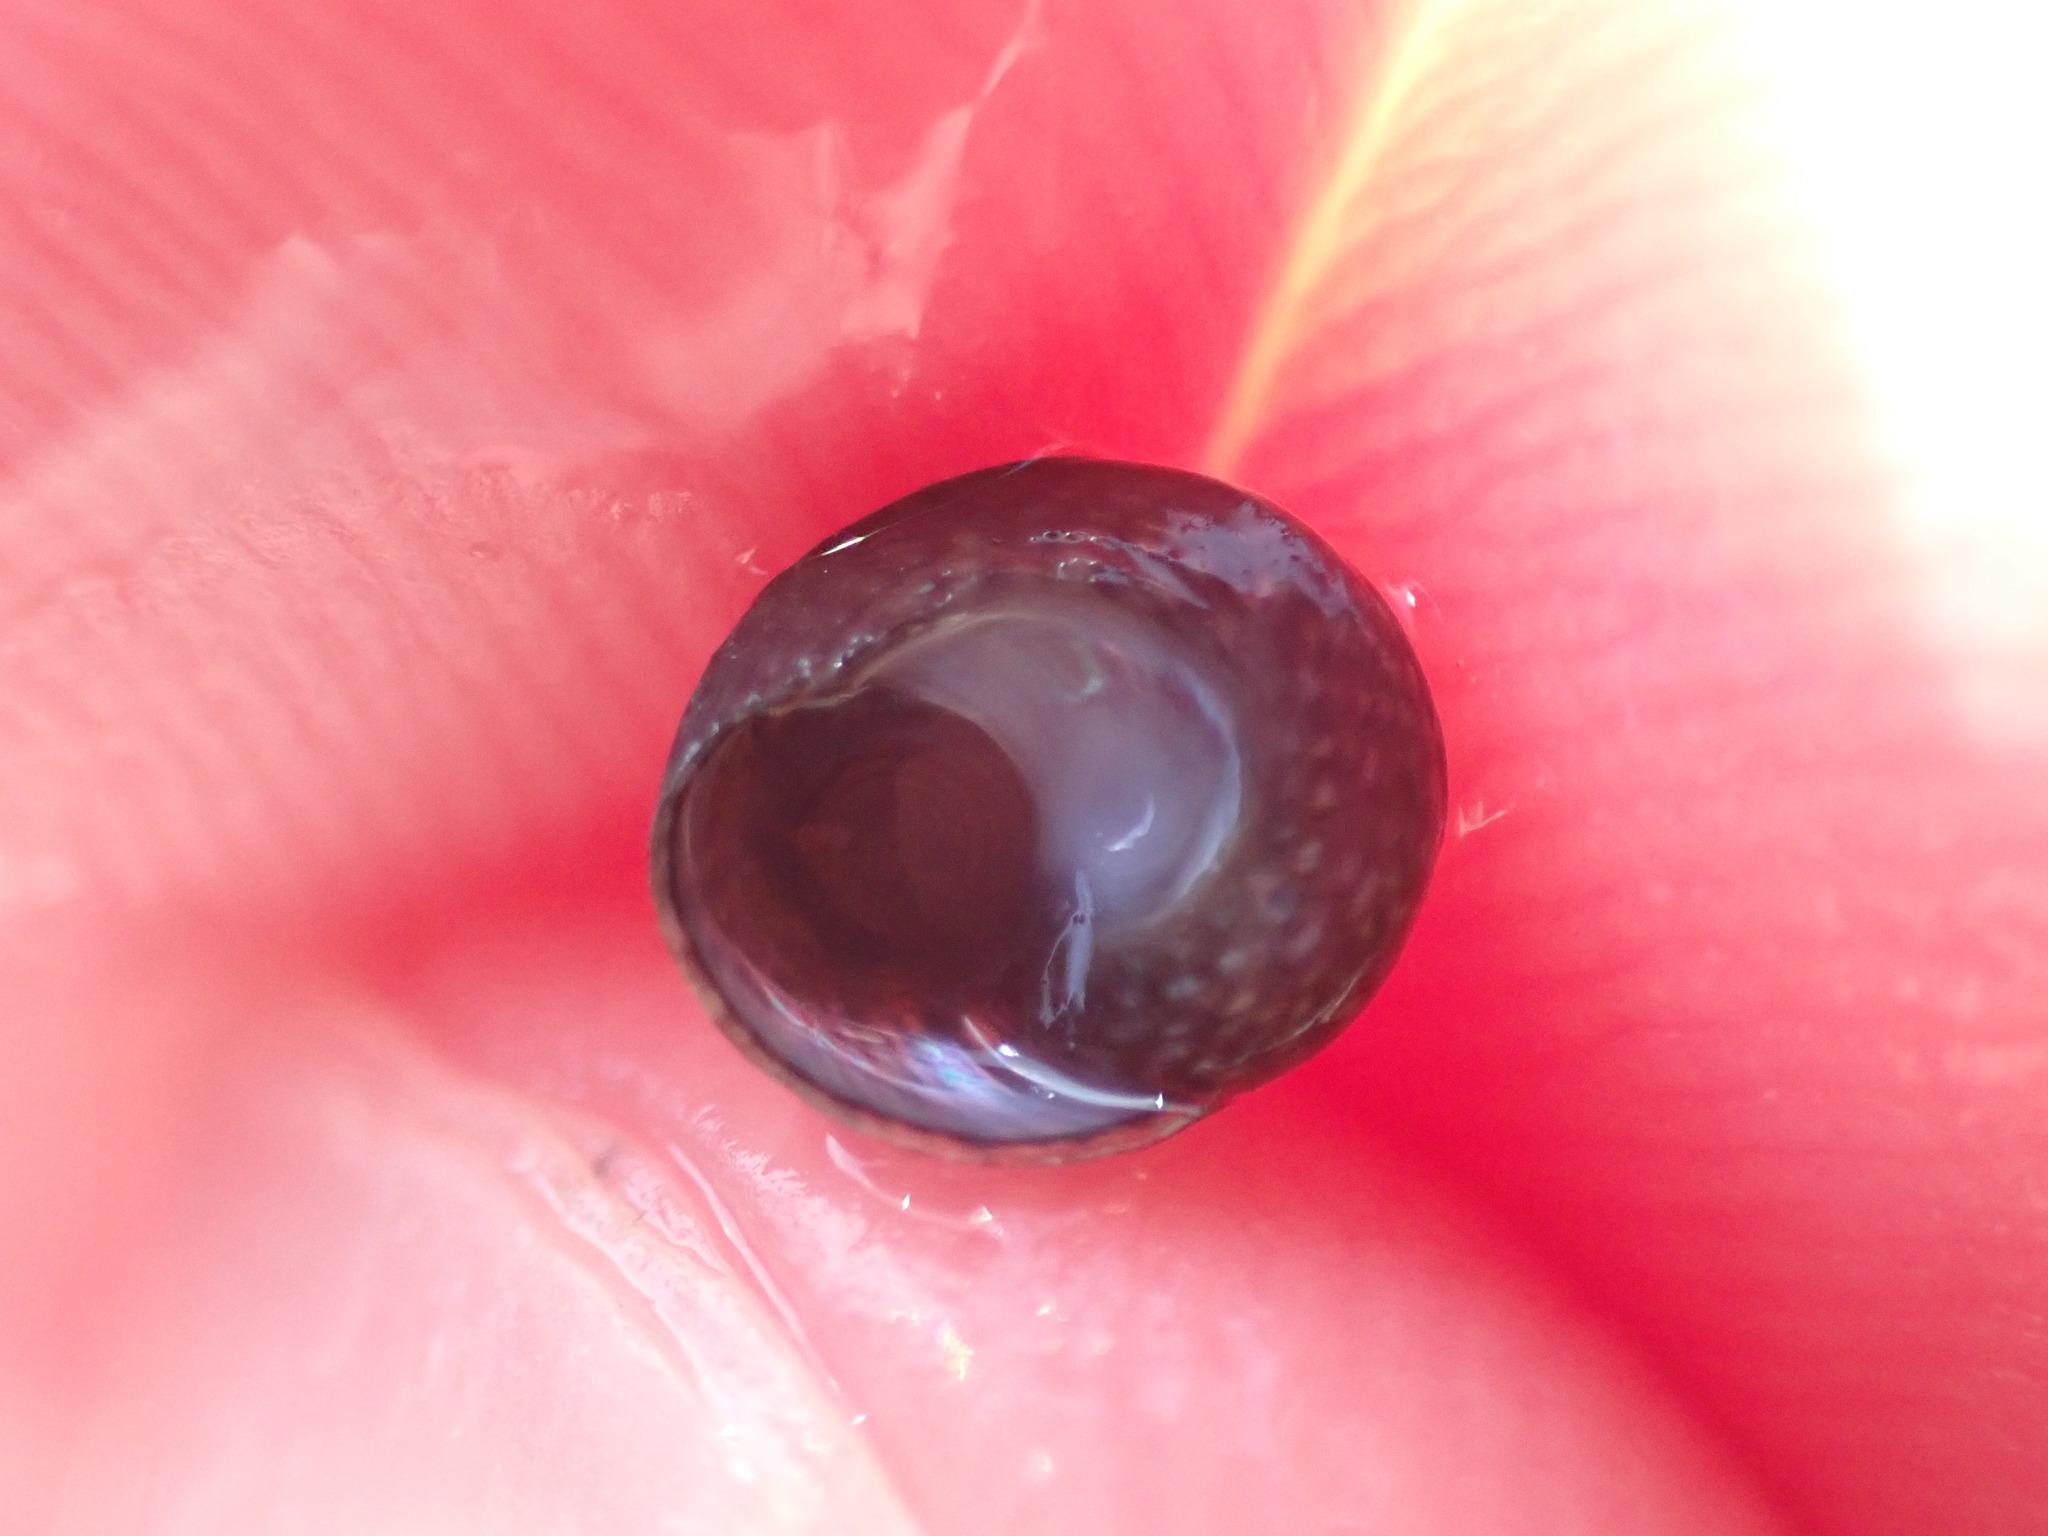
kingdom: Animalia
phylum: Mollusca
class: Gastropoda
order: Trochida
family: Trochidae
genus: Diloma
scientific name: Diloma coracinum
